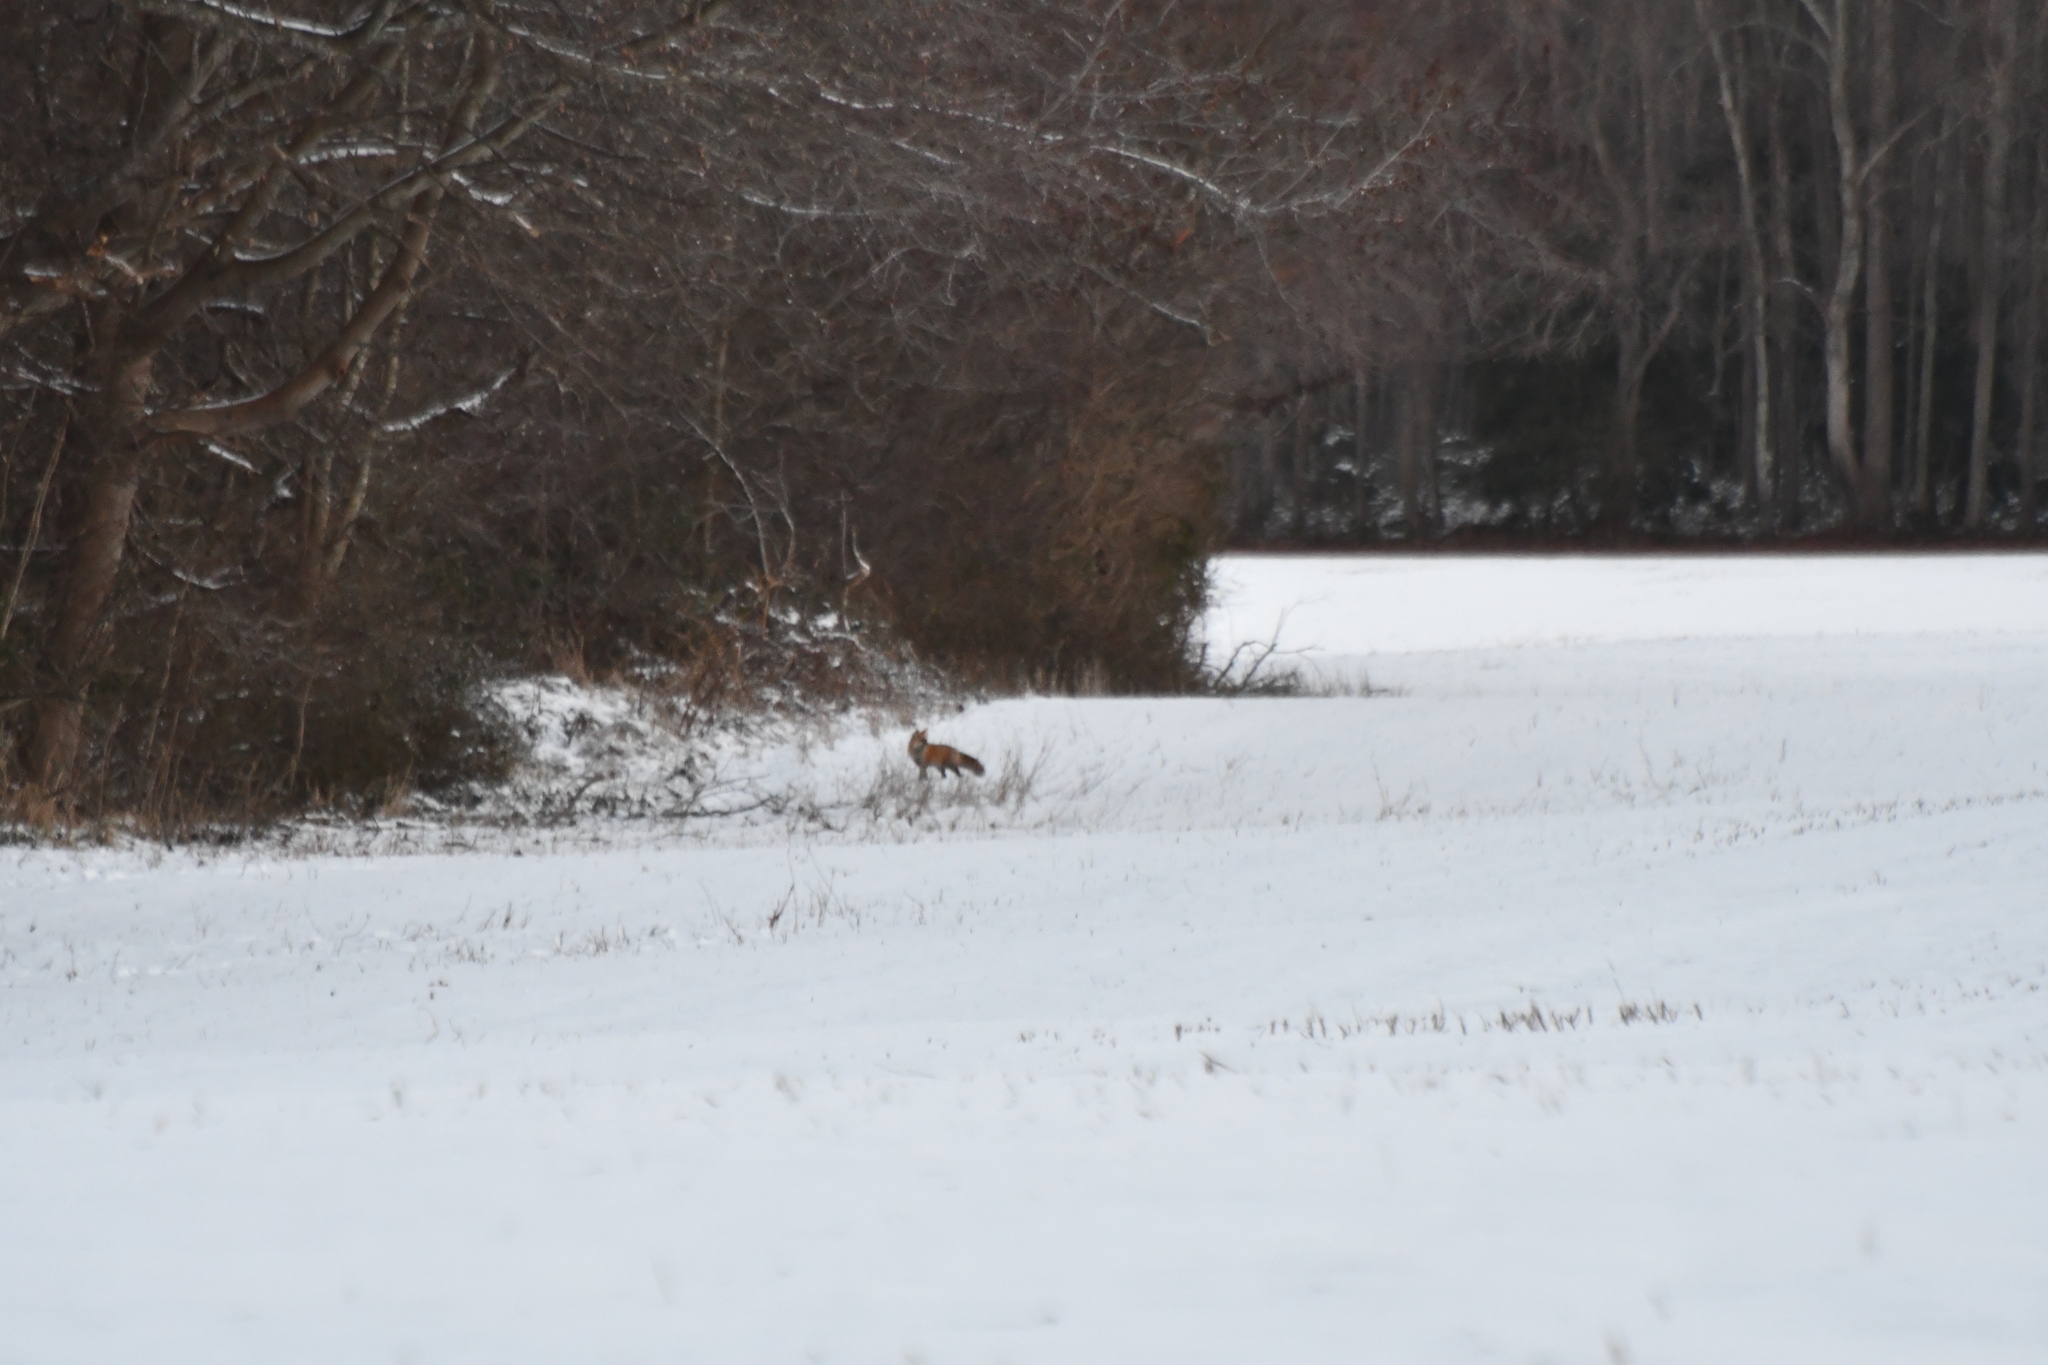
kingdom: Animalia
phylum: Chordata
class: Mammalia
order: Carnivora
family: Canidae
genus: Vulpes
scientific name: Vulpes vulpes
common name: Red fox
